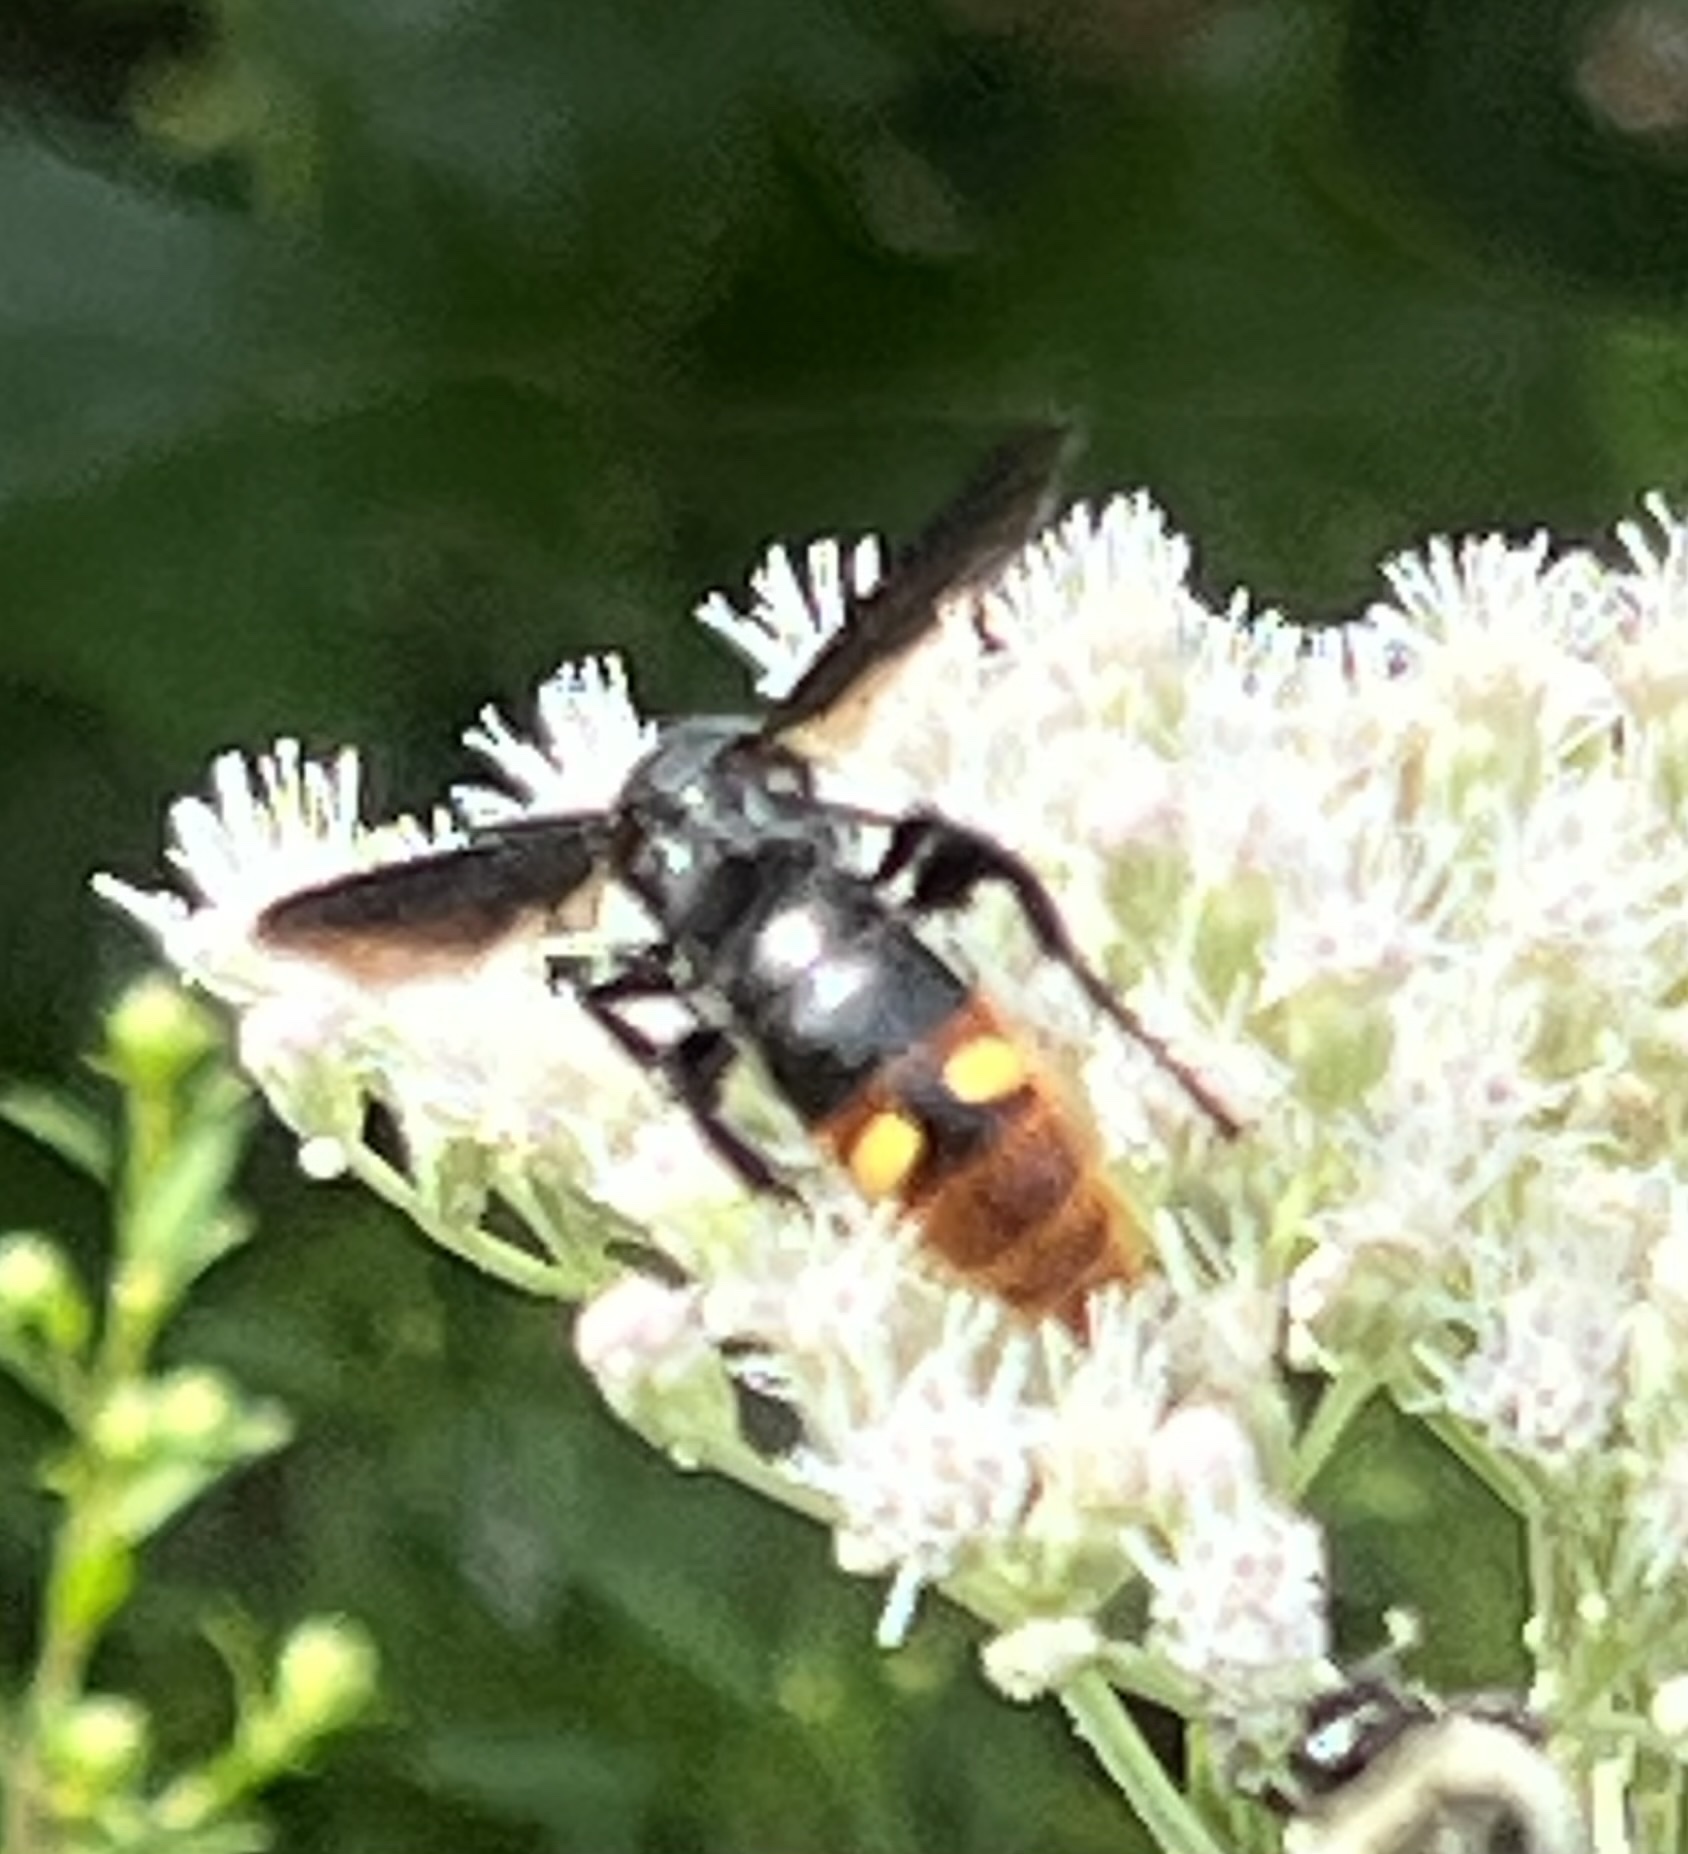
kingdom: Animalia
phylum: Arthropoda
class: Insecta
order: Hymenoptera
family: Scoliidae
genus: Scolia
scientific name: Scolia dubia
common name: Blue-winged scoliid wasp
